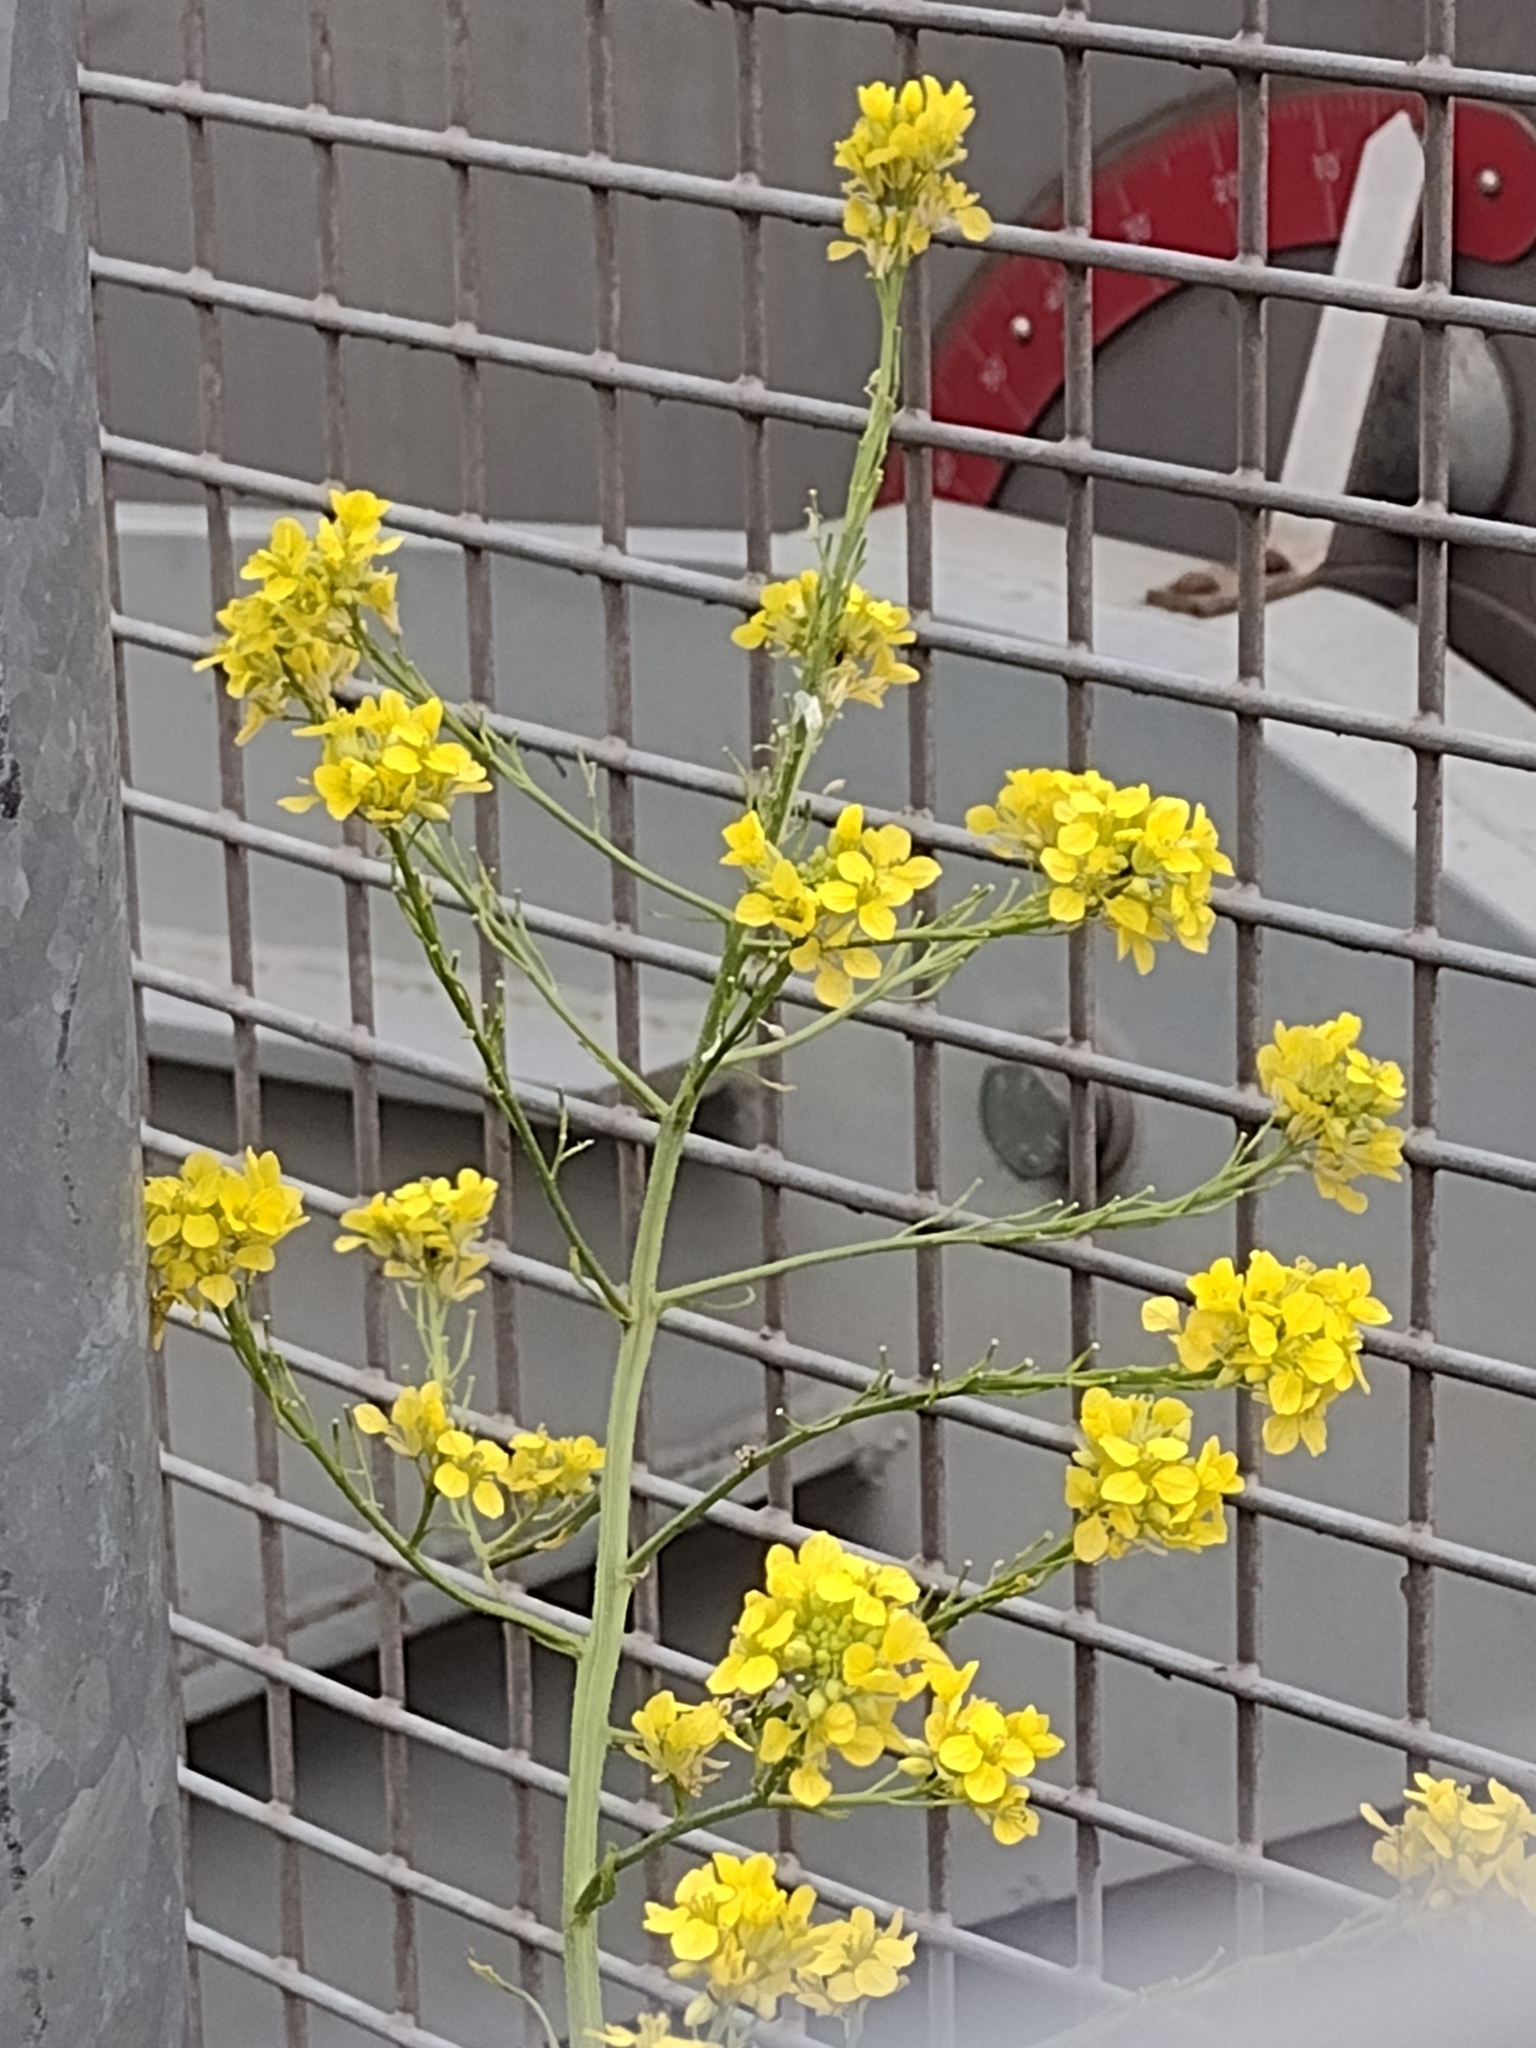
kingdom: Plantae
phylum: Tracheophyta
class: Magnoliopsida
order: Brassicales
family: Brassicaceae
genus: Hirschfeldia
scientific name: Hirschfeldia incana
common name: Hoary mustard
